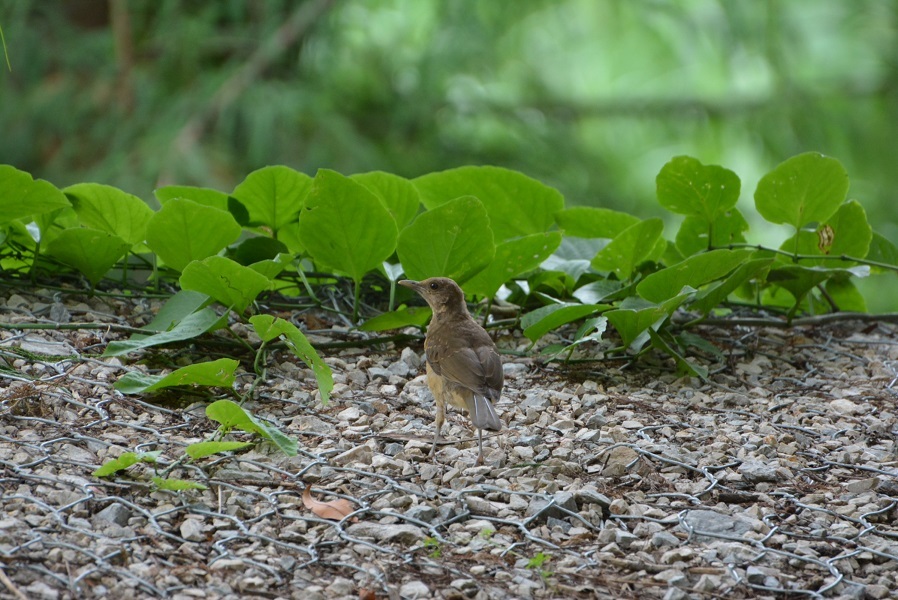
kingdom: Animalia
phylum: Chordata
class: Aves
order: Passeriformes
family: Turdidae
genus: Turdus
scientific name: Turdus grayi
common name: Clay-colored thrush
